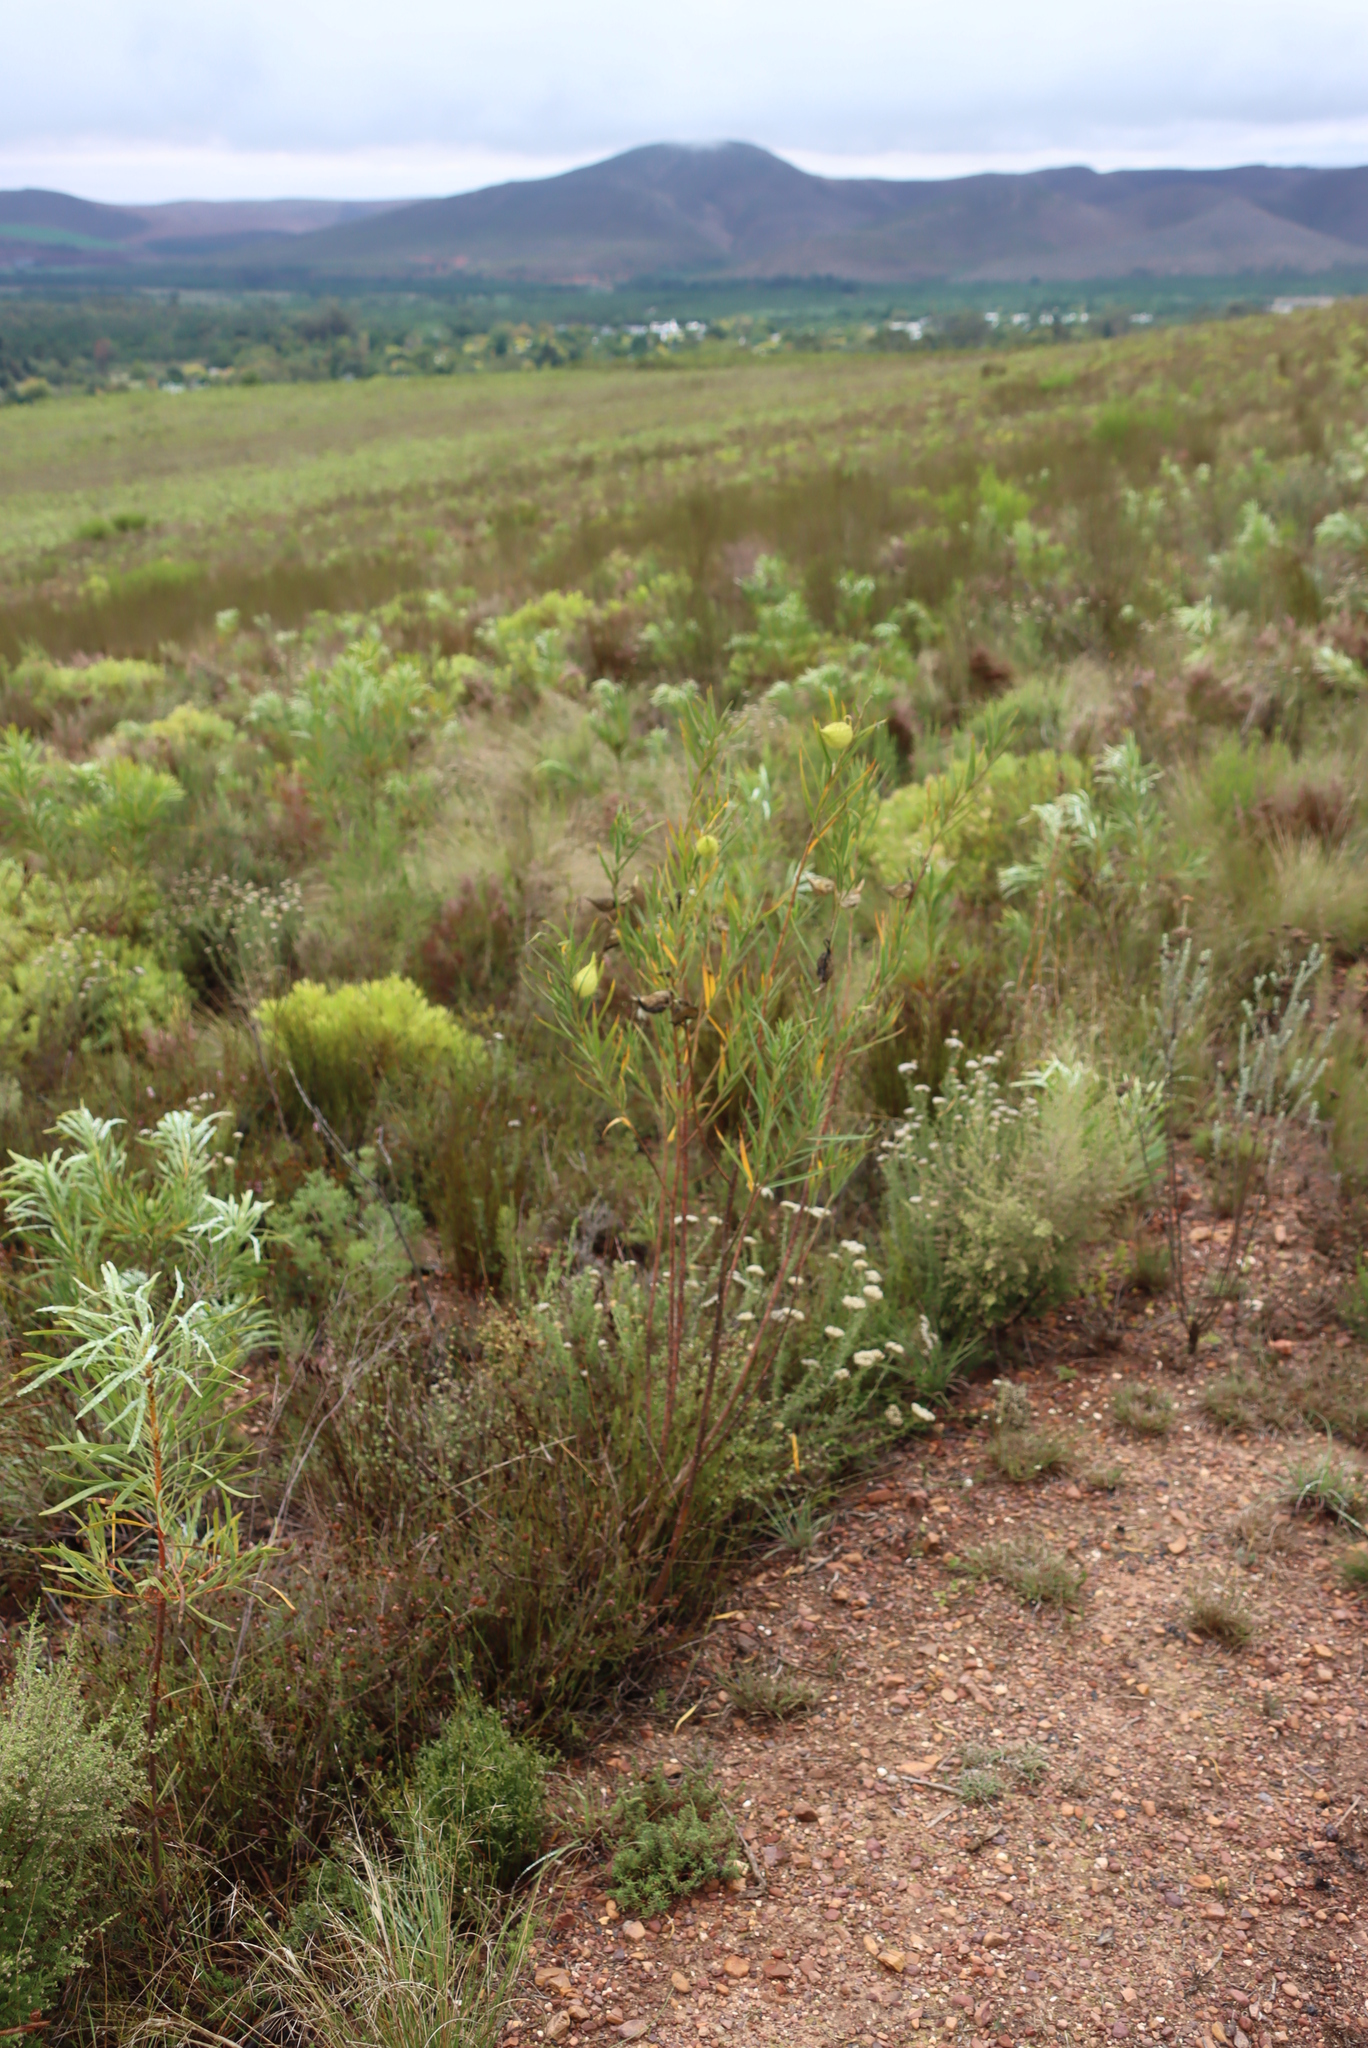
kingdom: Plantae
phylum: Tracheophyta
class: Magnoliopsida
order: Gentianales
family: Apocynaceae
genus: Gomphocarpus
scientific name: Gomphocarpus fruticosus
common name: Milkweed
